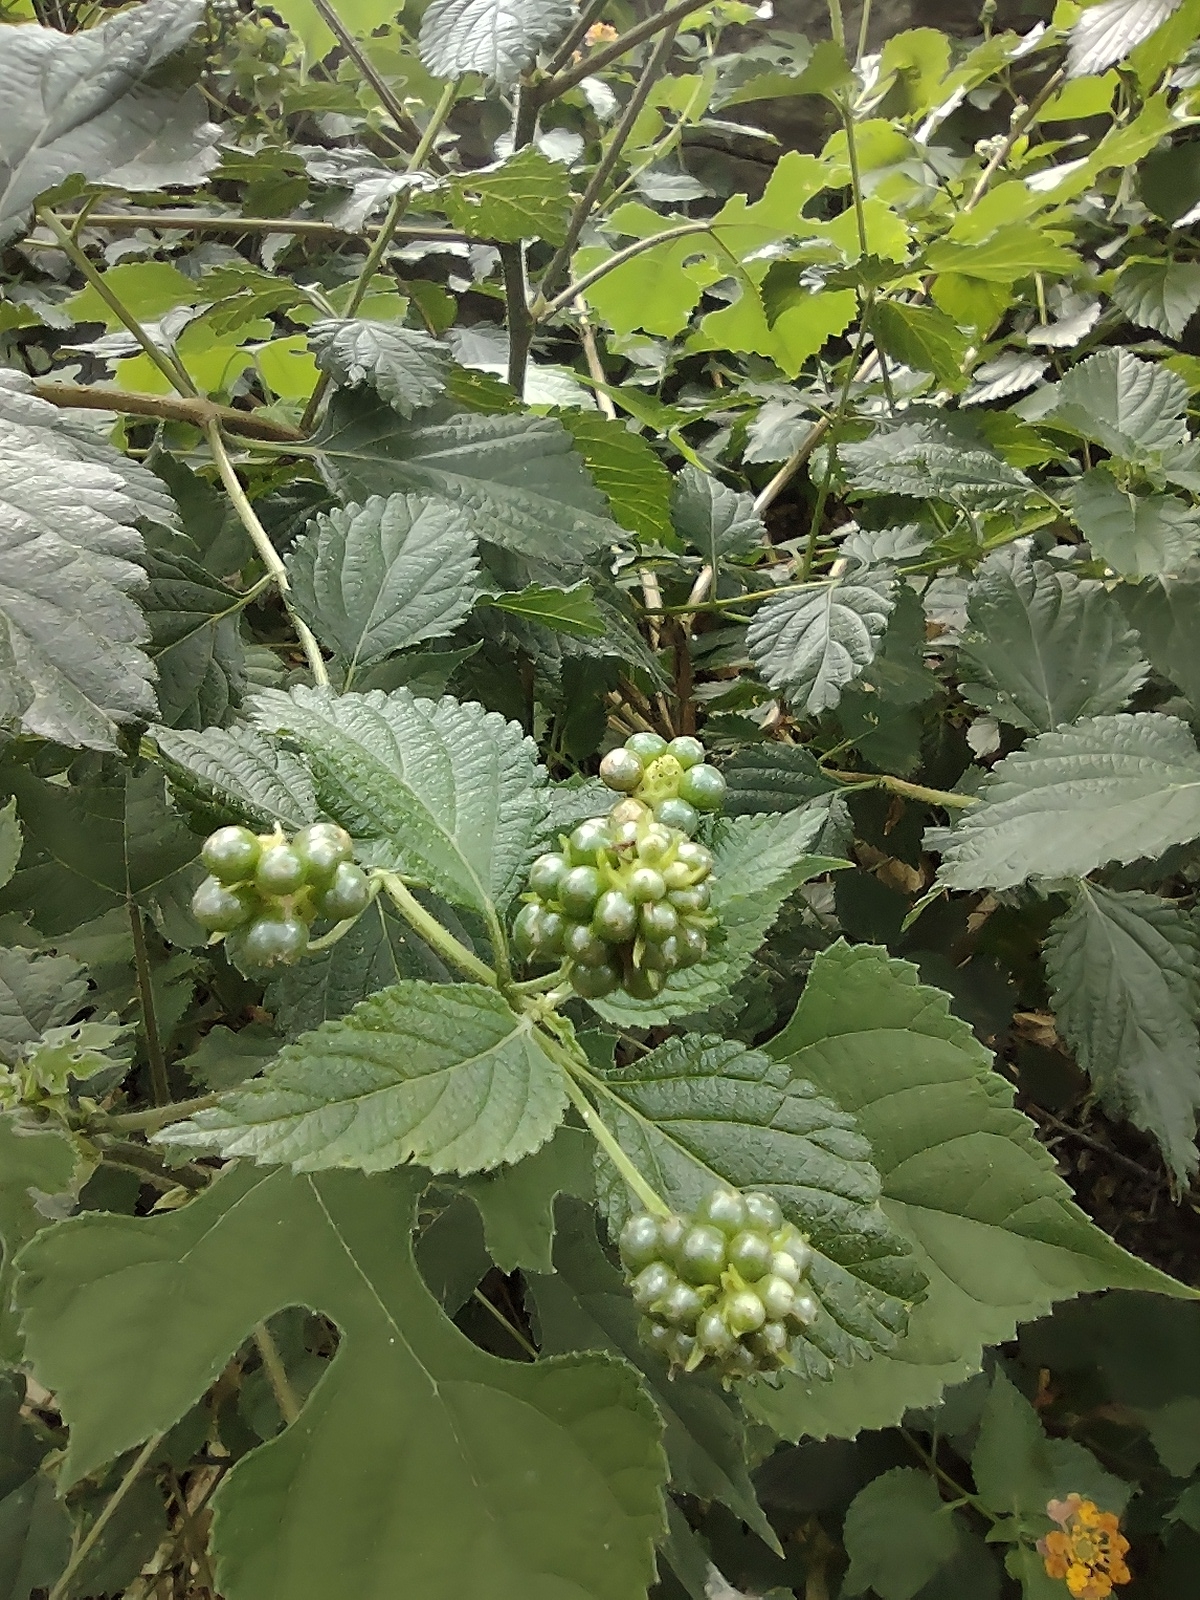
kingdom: Plantae
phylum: Tracheophyta
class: Magnoliopsida
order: Lamiales
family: Verbenaceae
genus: Lantana
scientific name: Lantana camara
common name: Lantana
